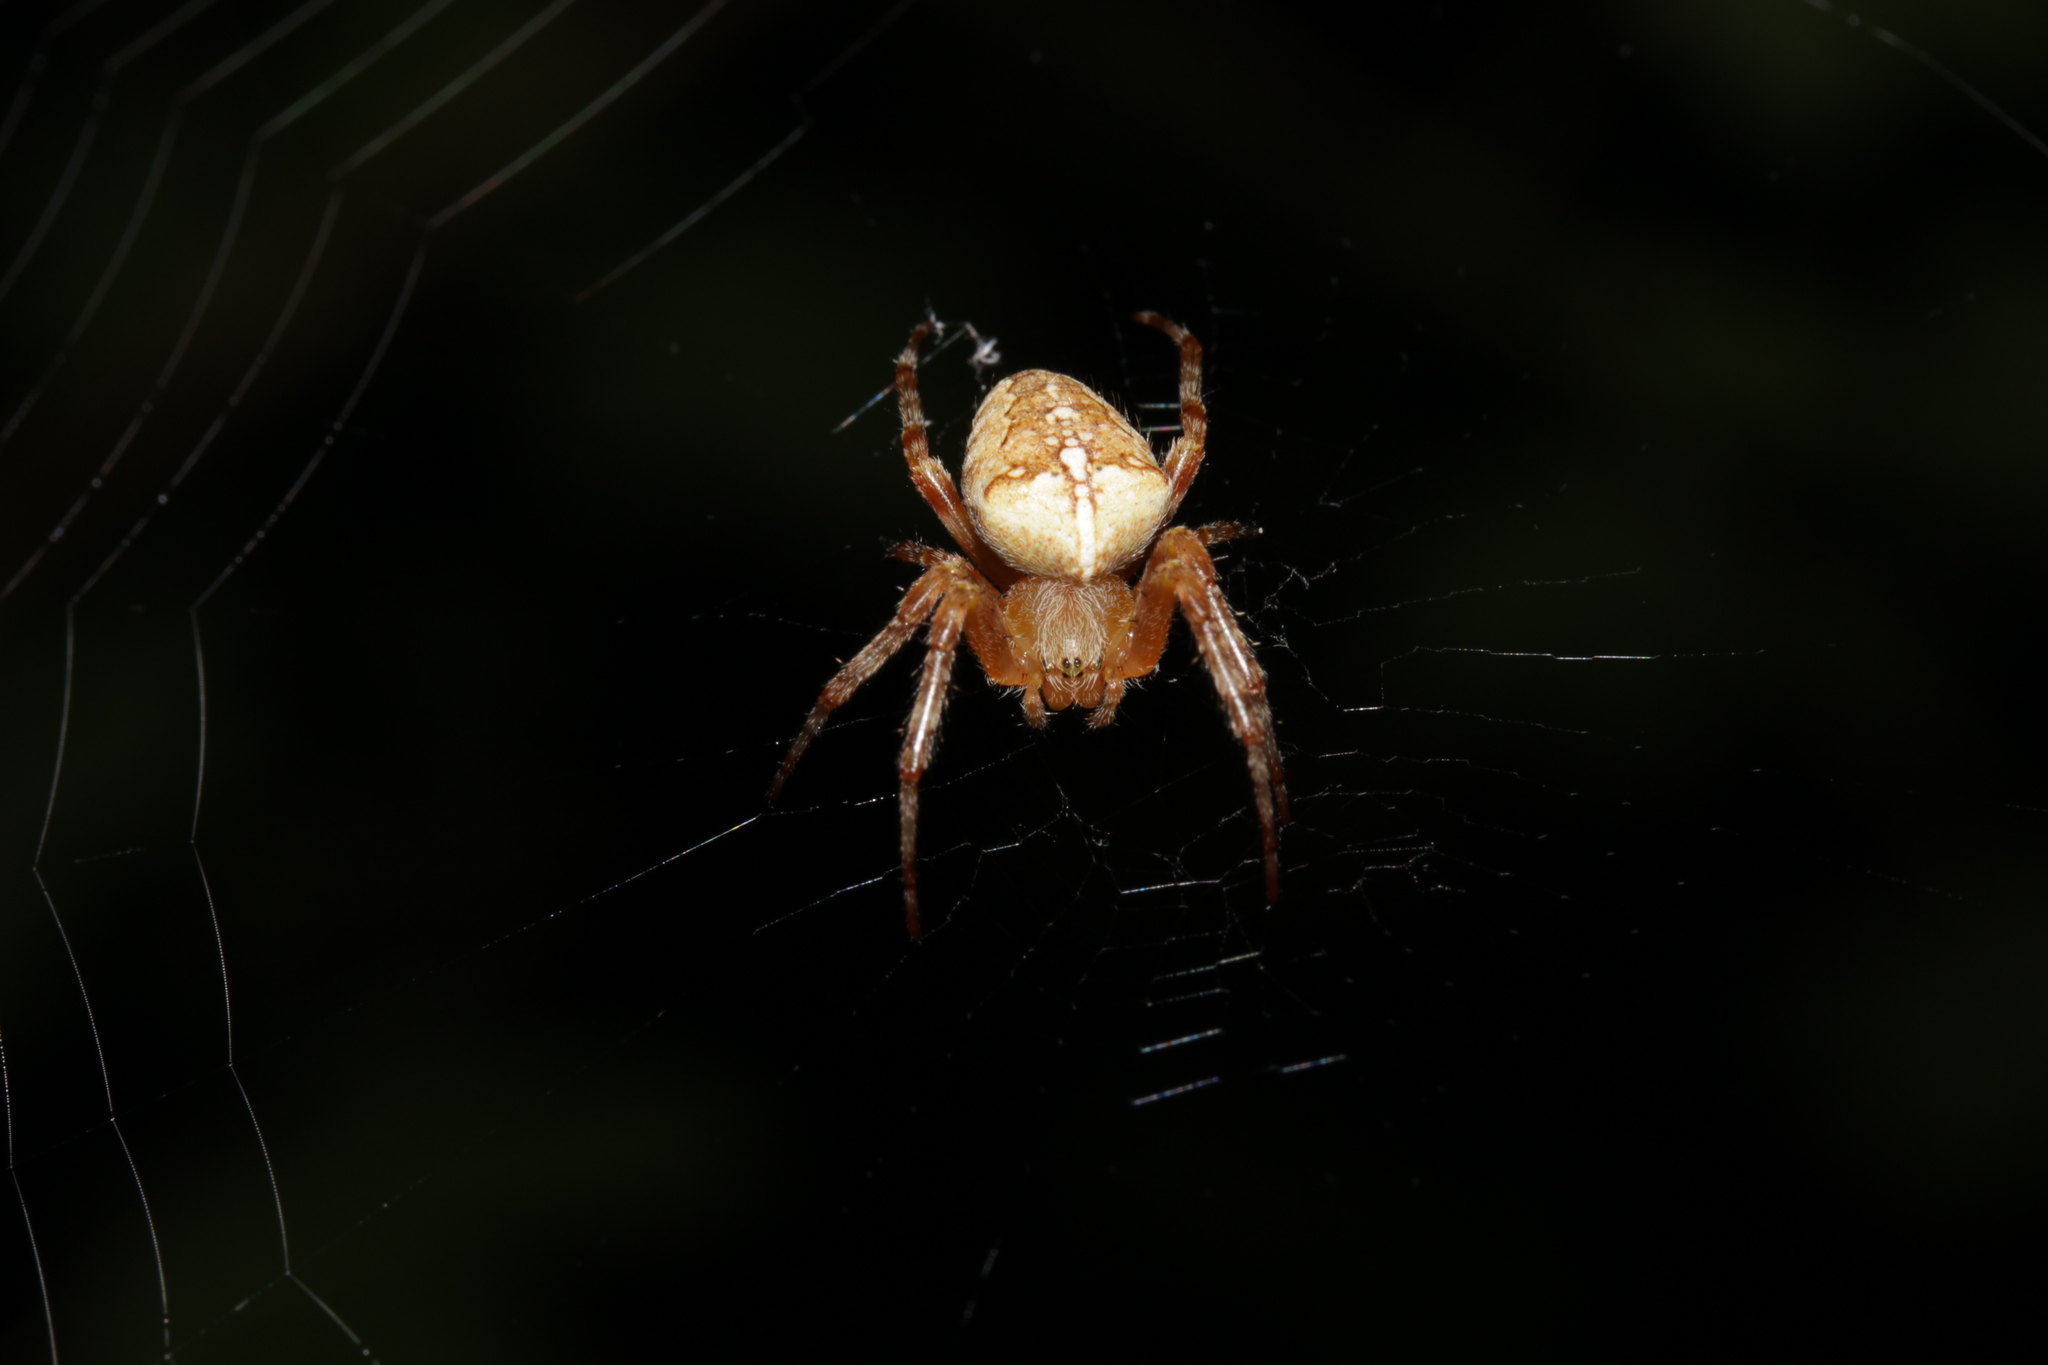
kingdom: Animalia
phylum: Arthropoda
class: Arachnida
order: Araneae
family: Araneidae
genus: Araneus
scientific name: Araneus diadematus
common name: Cross orbweaver
